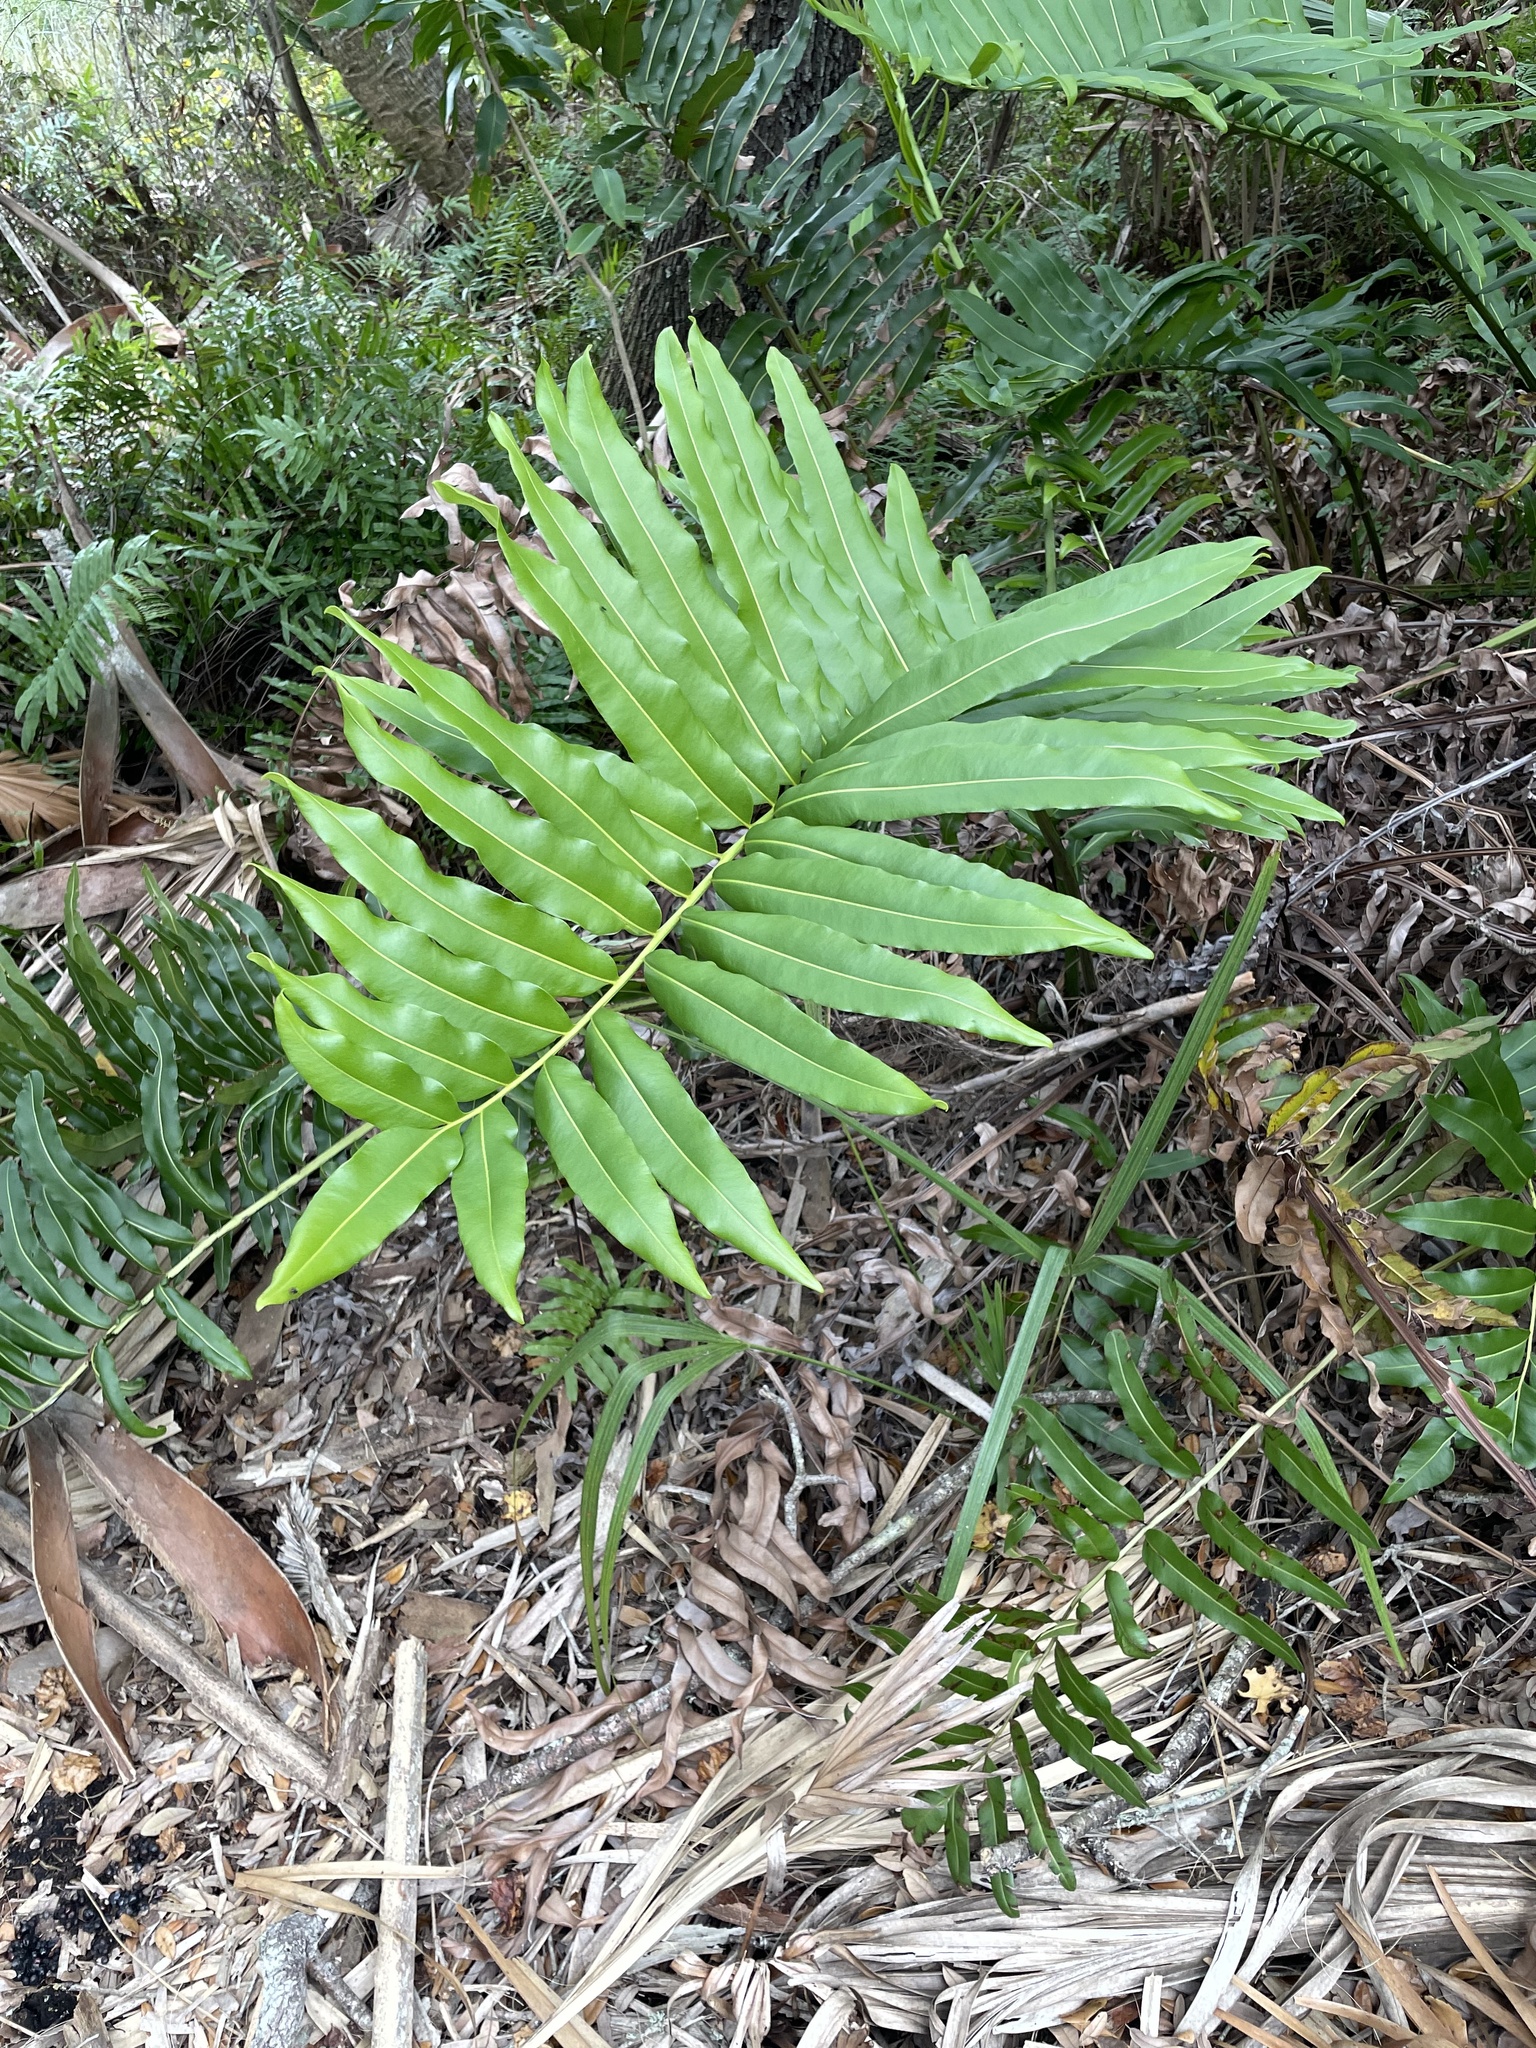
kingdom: Plantae
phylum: Tracheophyta
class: Polypodiopsida
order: Polypodiales
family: Pteridaceae
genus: Acrostichum
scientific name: Acrostichum danaeifolium
